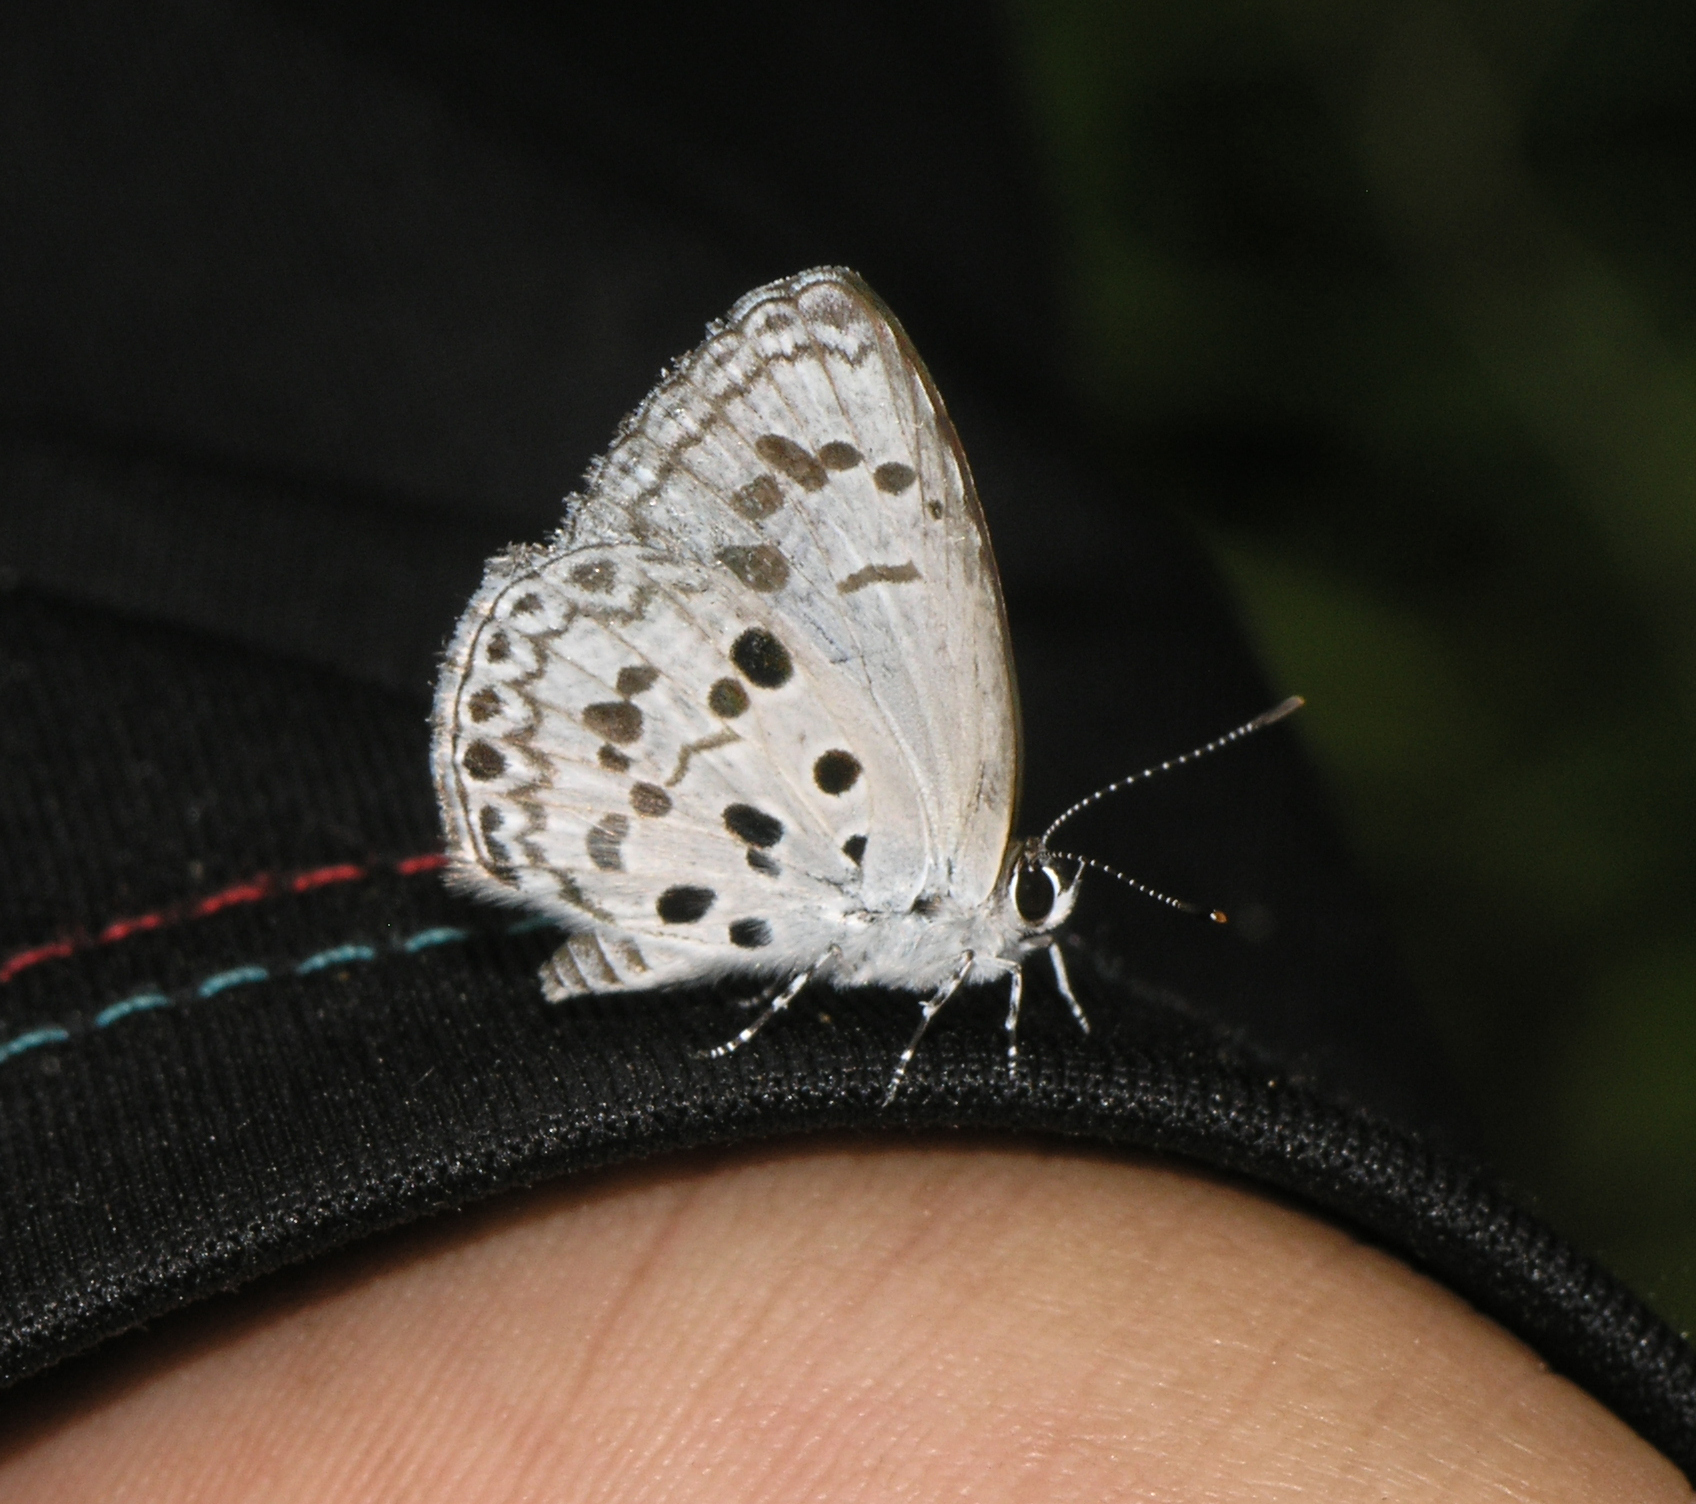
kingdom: Animalia
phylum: Arthropoda
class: Insecta
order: Lepidoptera
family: Lycaenidae
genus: Acytolepis
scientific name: Acytolepis puspa
